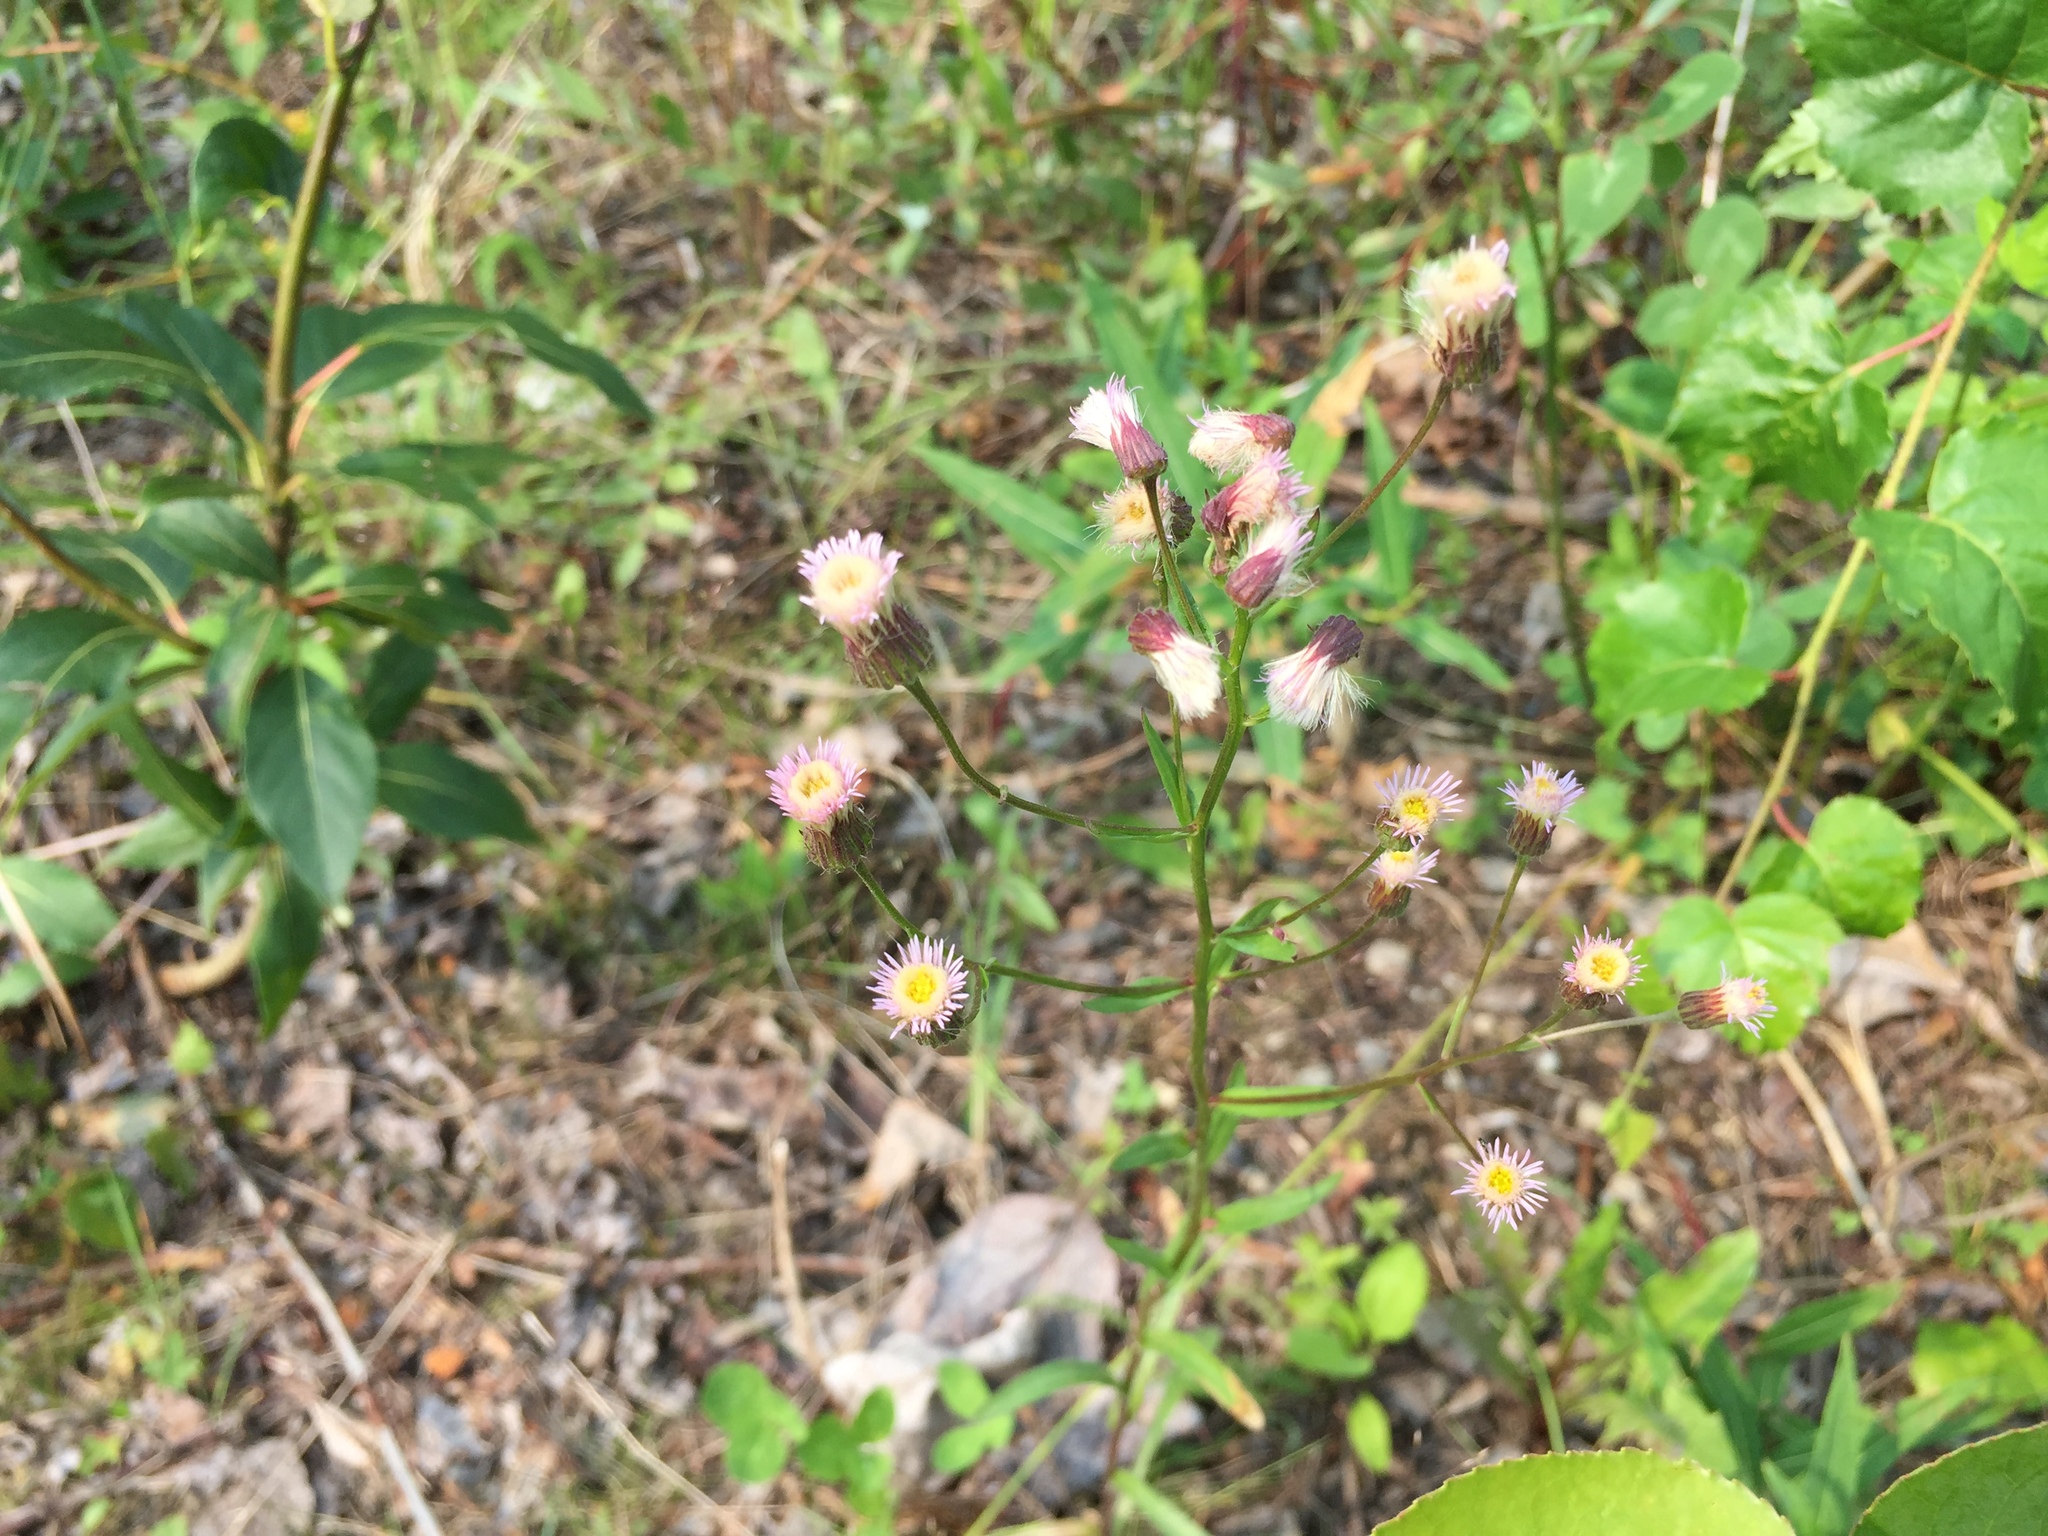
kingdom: Plantae
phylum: Tracheophyta
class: Magnoliopsida
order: Asterales
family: Asteraceae
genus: Erigeron
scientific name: Erigeron acris
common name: Blue fleabane
